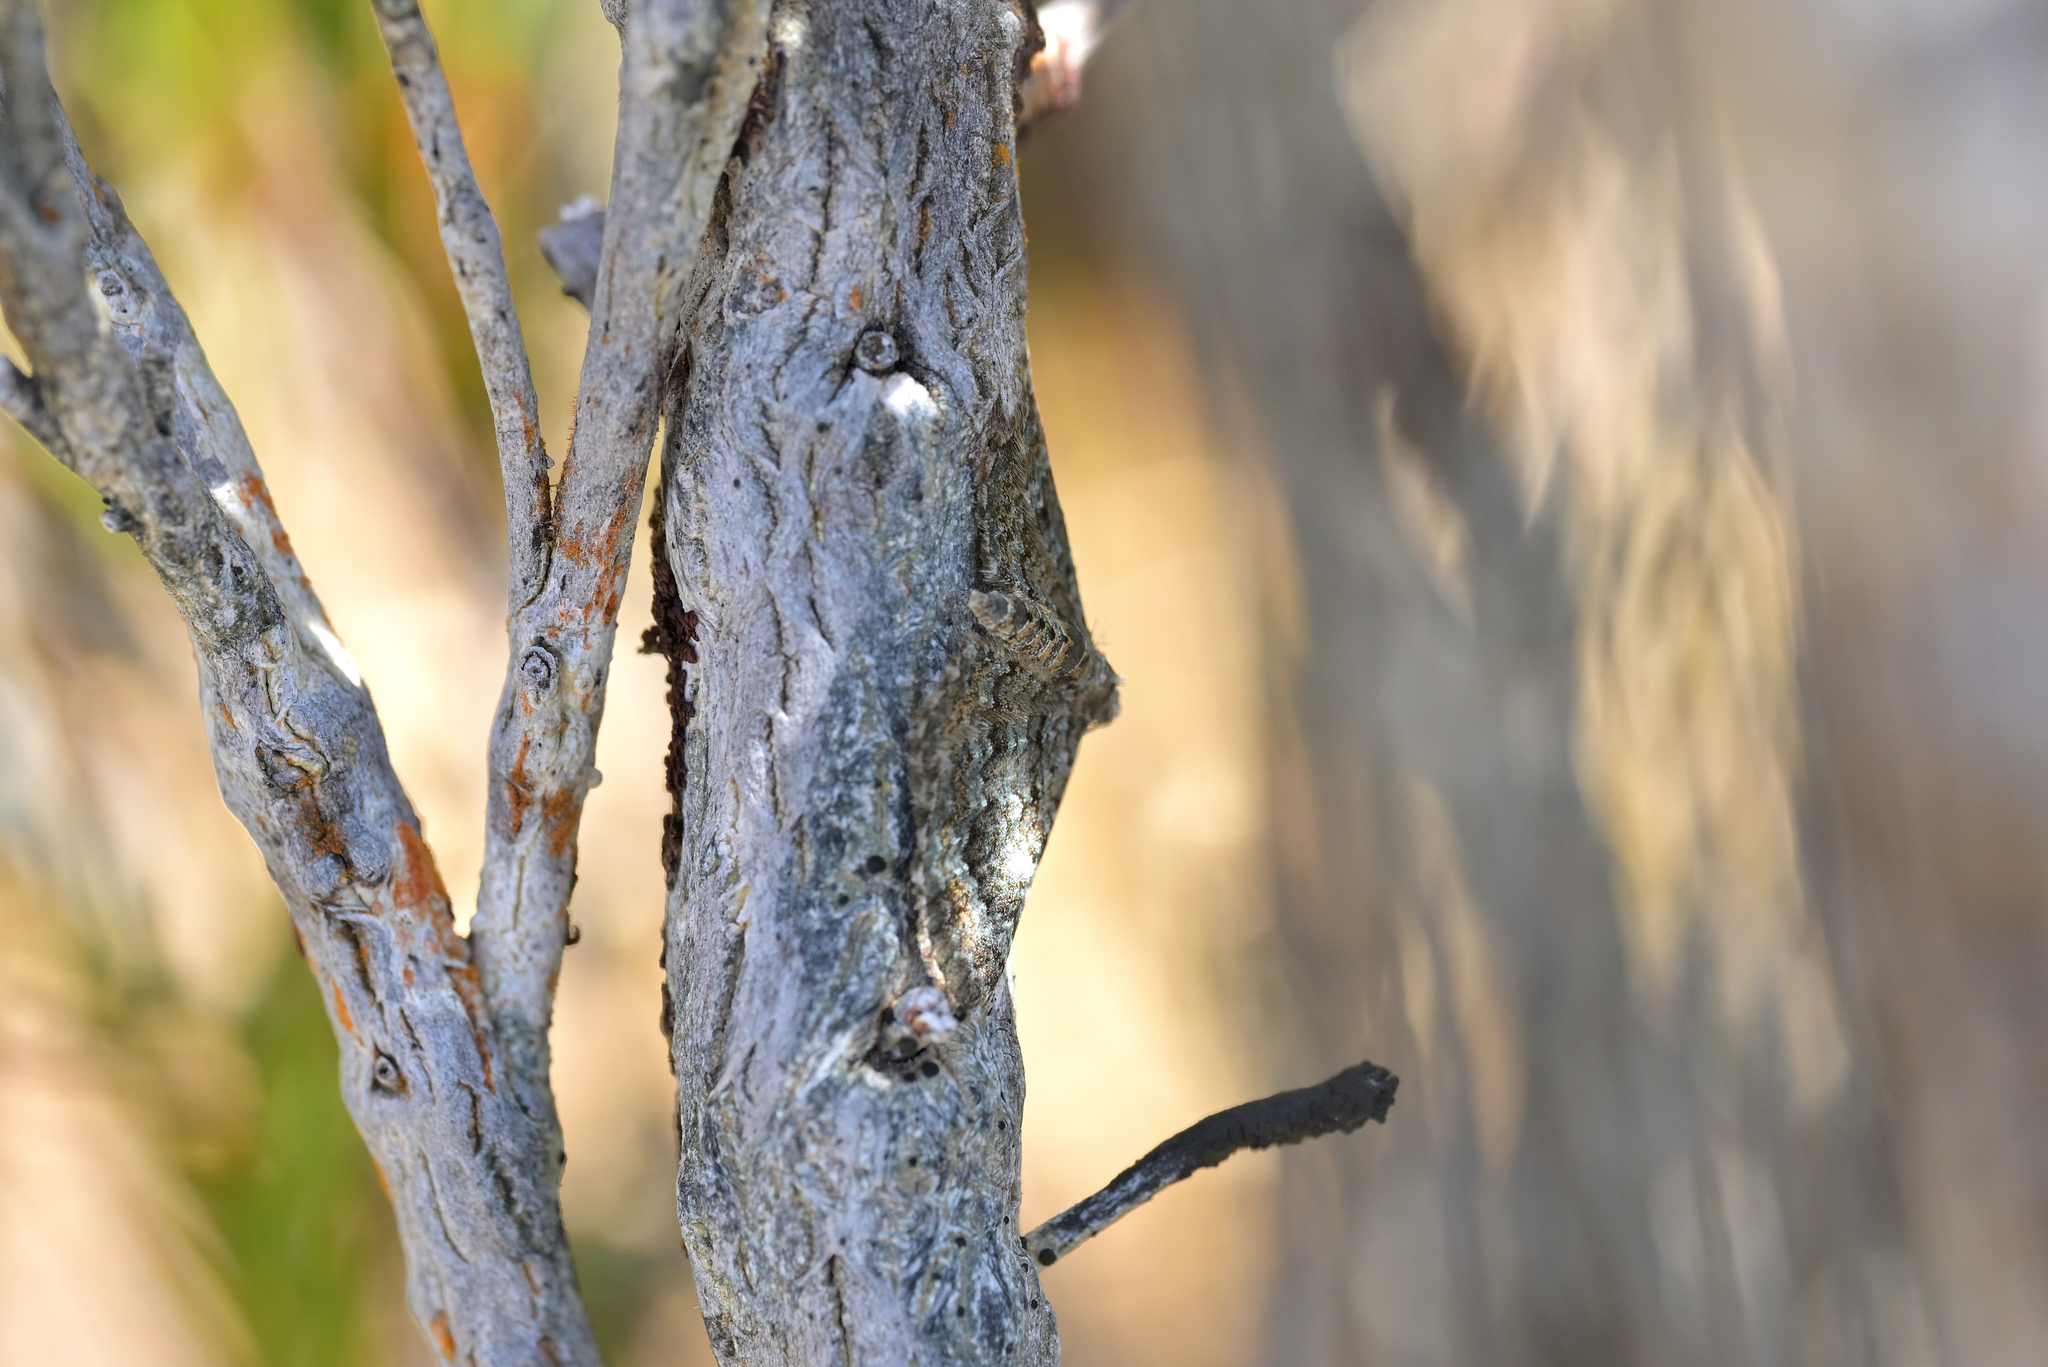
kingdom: Animalia
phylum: Arthropoda
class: Insecta
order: Lepidoptera
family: Geometridae
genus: Chloroclystis
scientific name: Chloroclystis nereis
